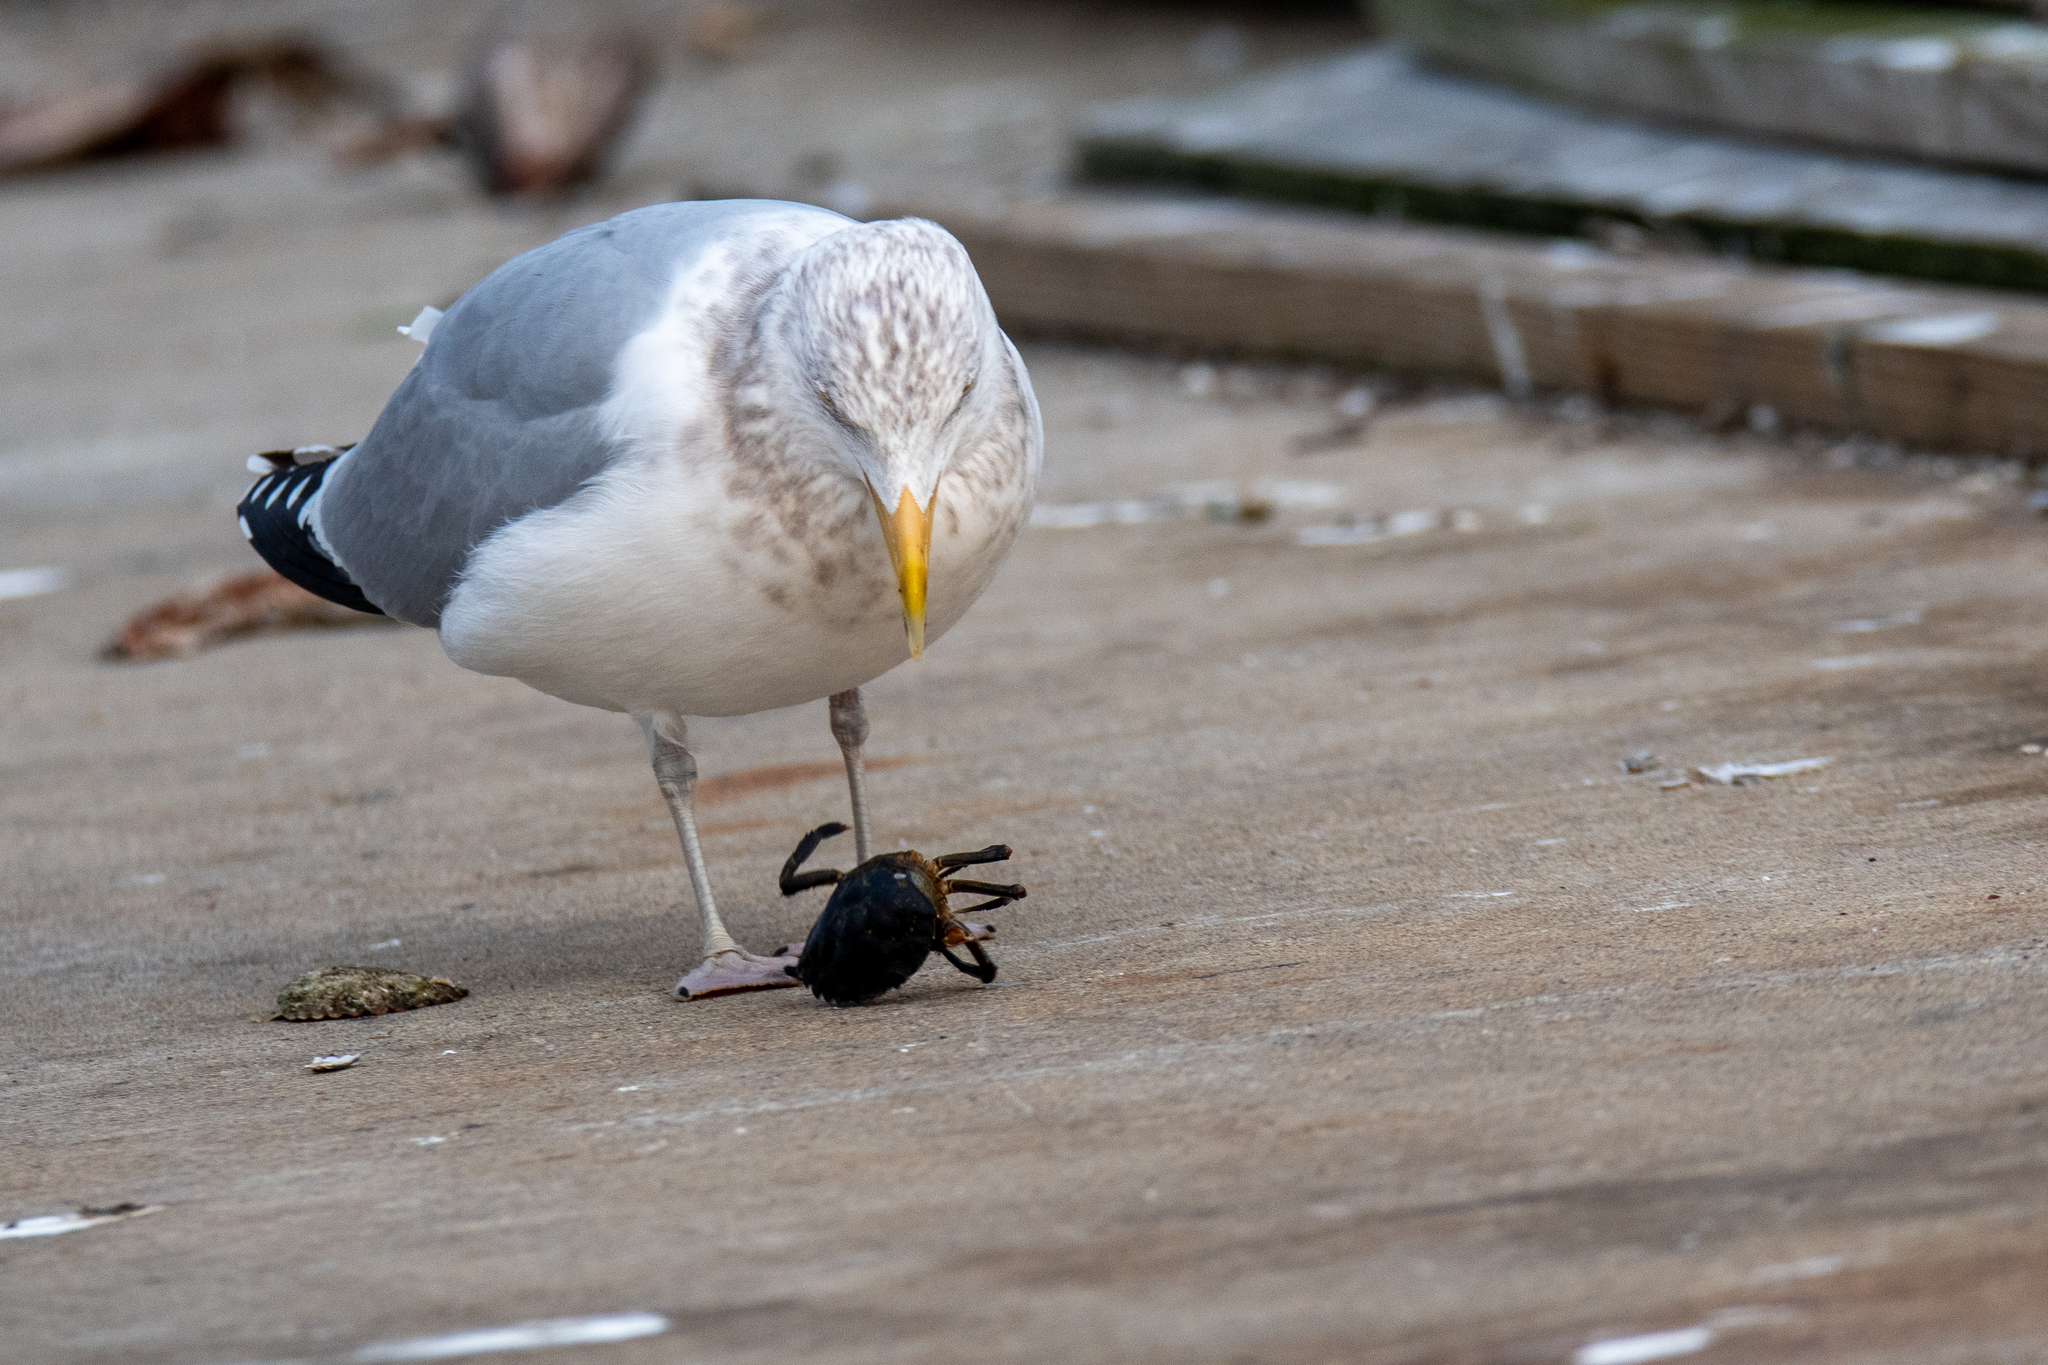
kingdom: Animalia
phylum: Arthropoda
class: Malacostraca
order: Decapoda
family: Carcinidae
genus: Carcinus
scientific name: Carcinus maenas
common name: European green crab
